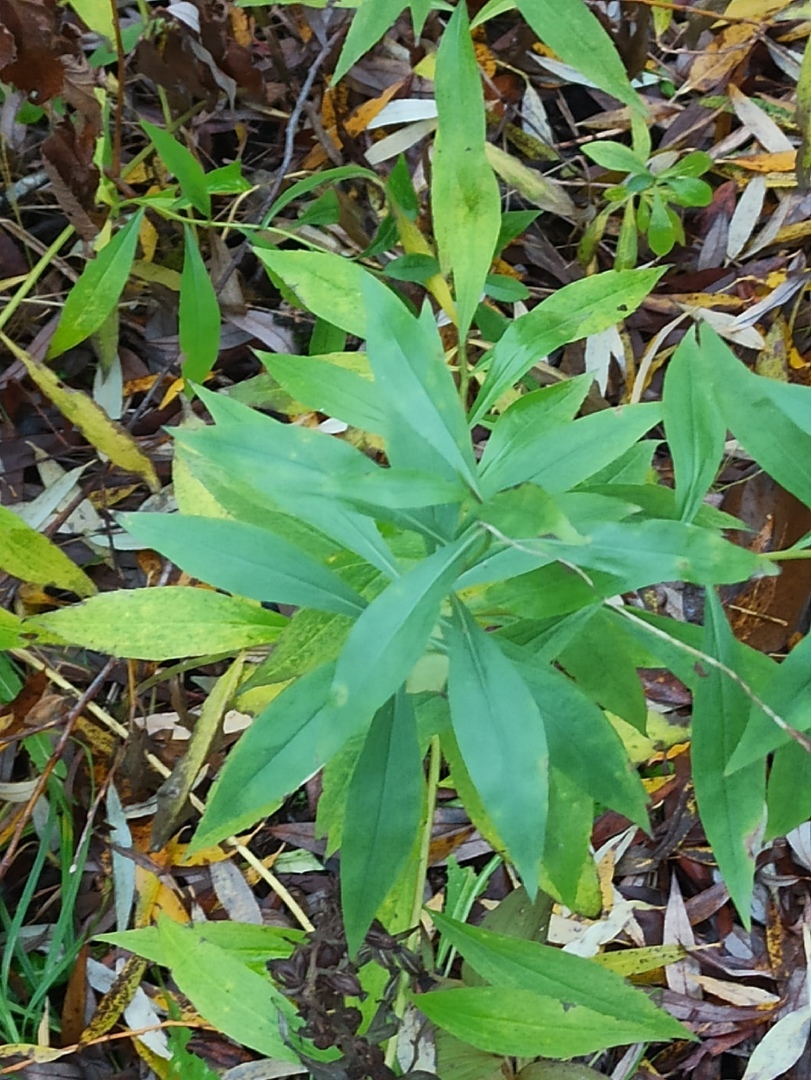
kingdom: Plantae
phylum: Tracheophyta
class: Magnoliopsida
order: Asterales
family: Asteraceae
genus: Solidago
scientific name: Solidago gigantea
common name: Giant goldenrod
